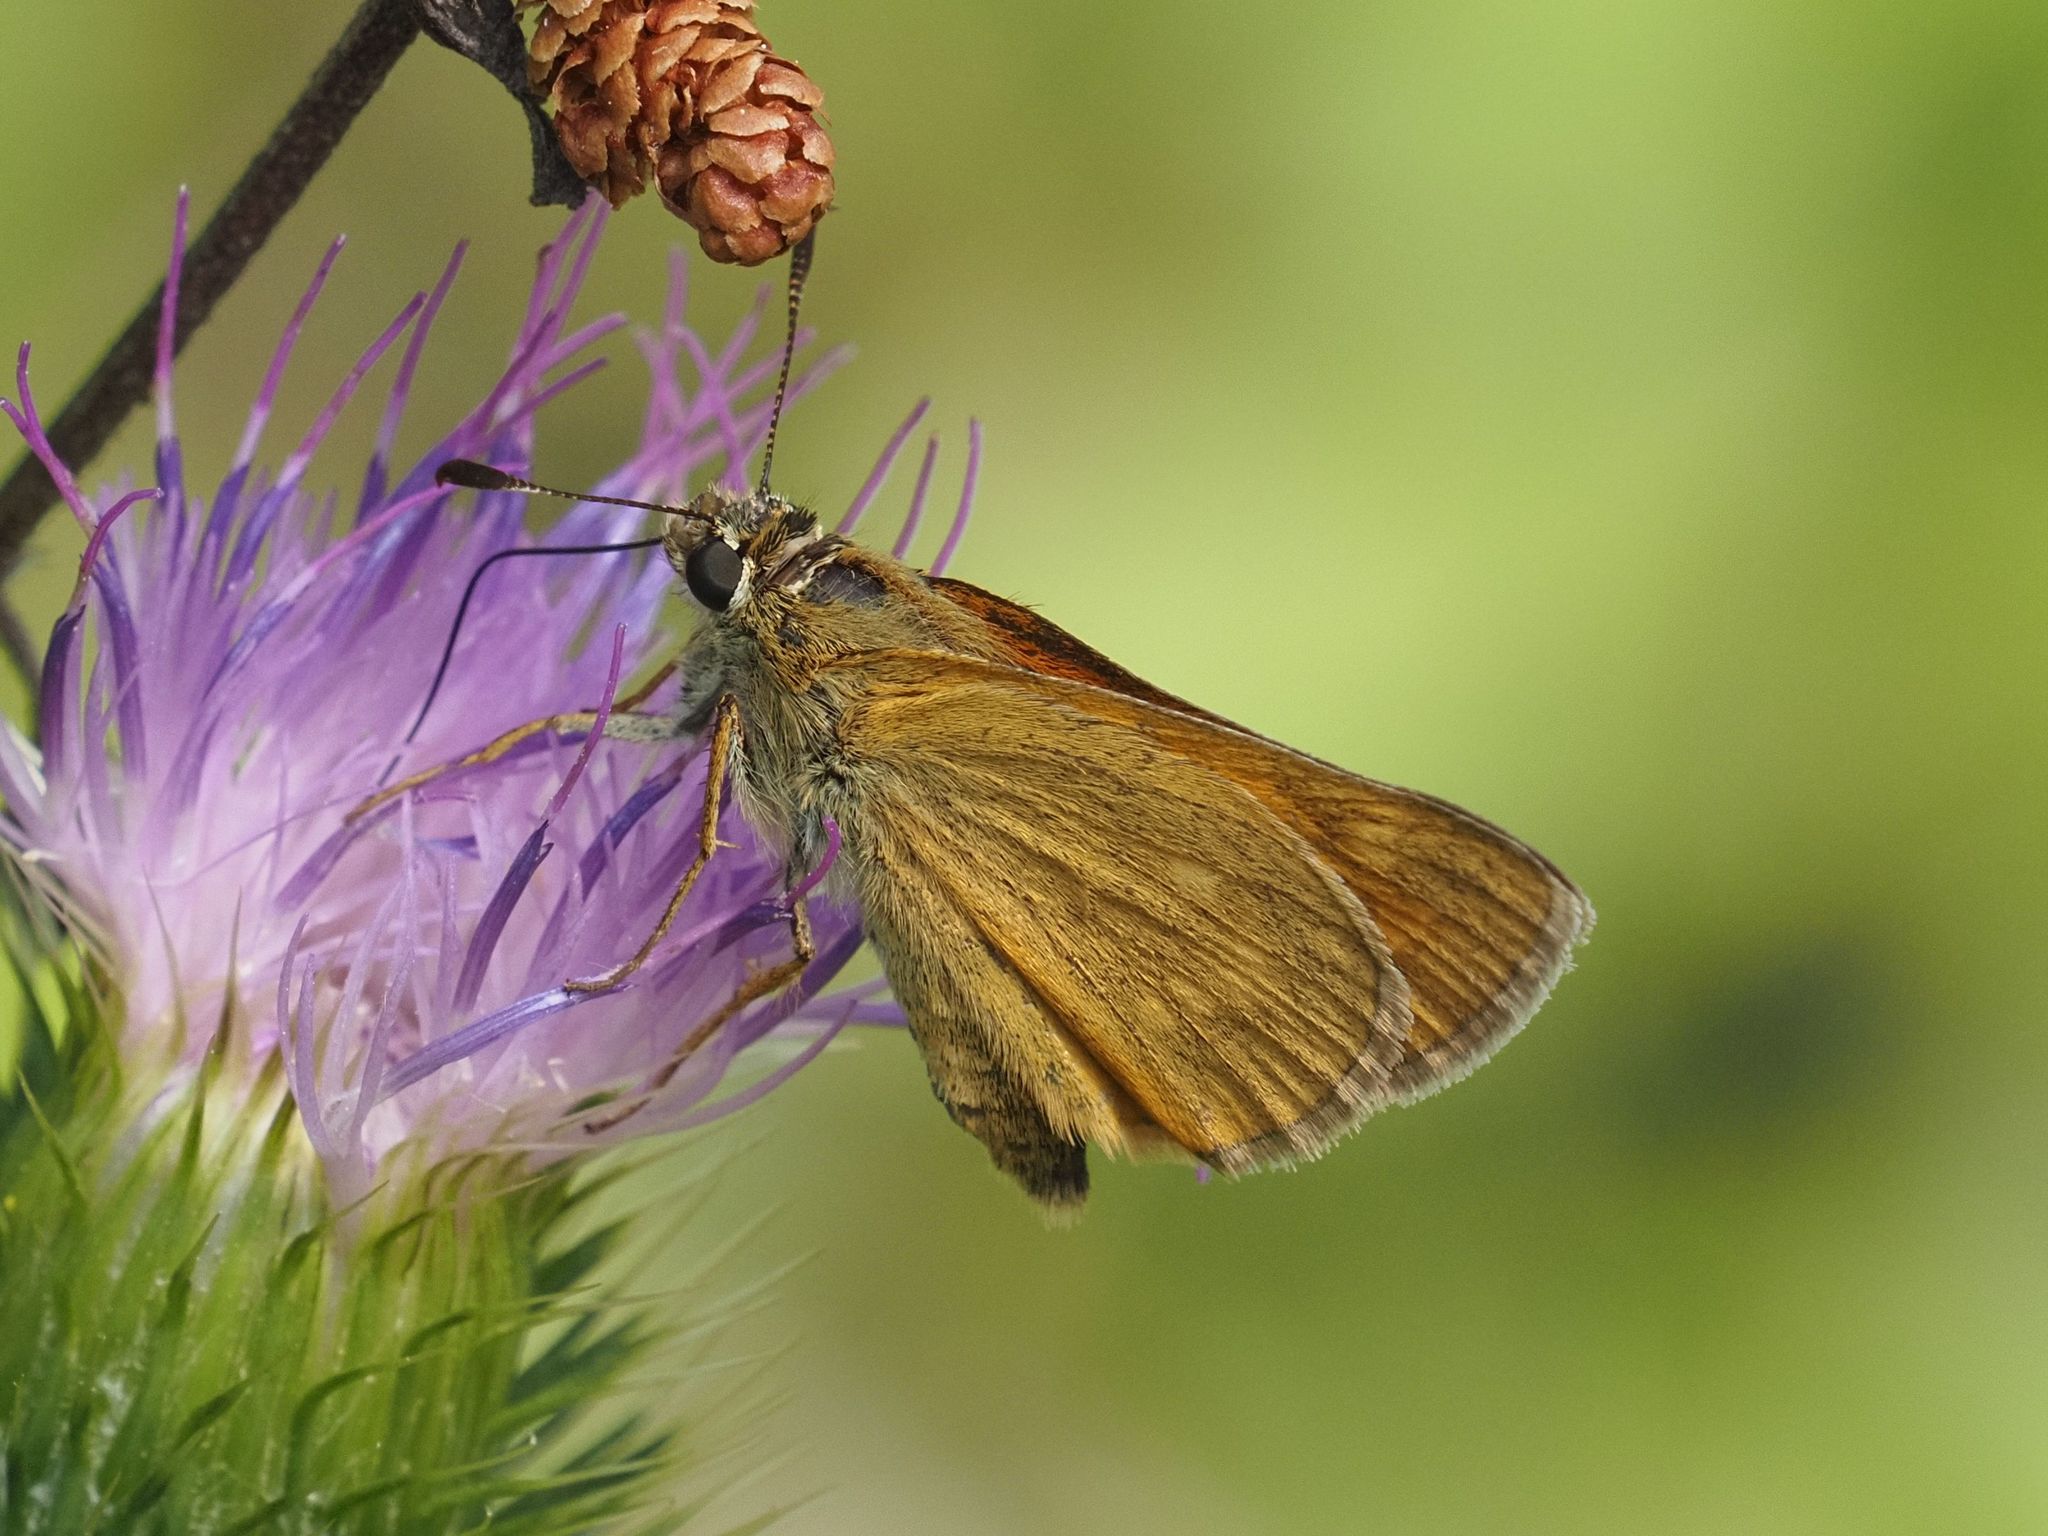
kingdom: Animalia
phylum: Arthropoda
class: Insecta
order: Lepidoptera
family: Hesperiidae
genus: Ochlodes
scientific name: Ochlodes venata
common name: Large skipper
